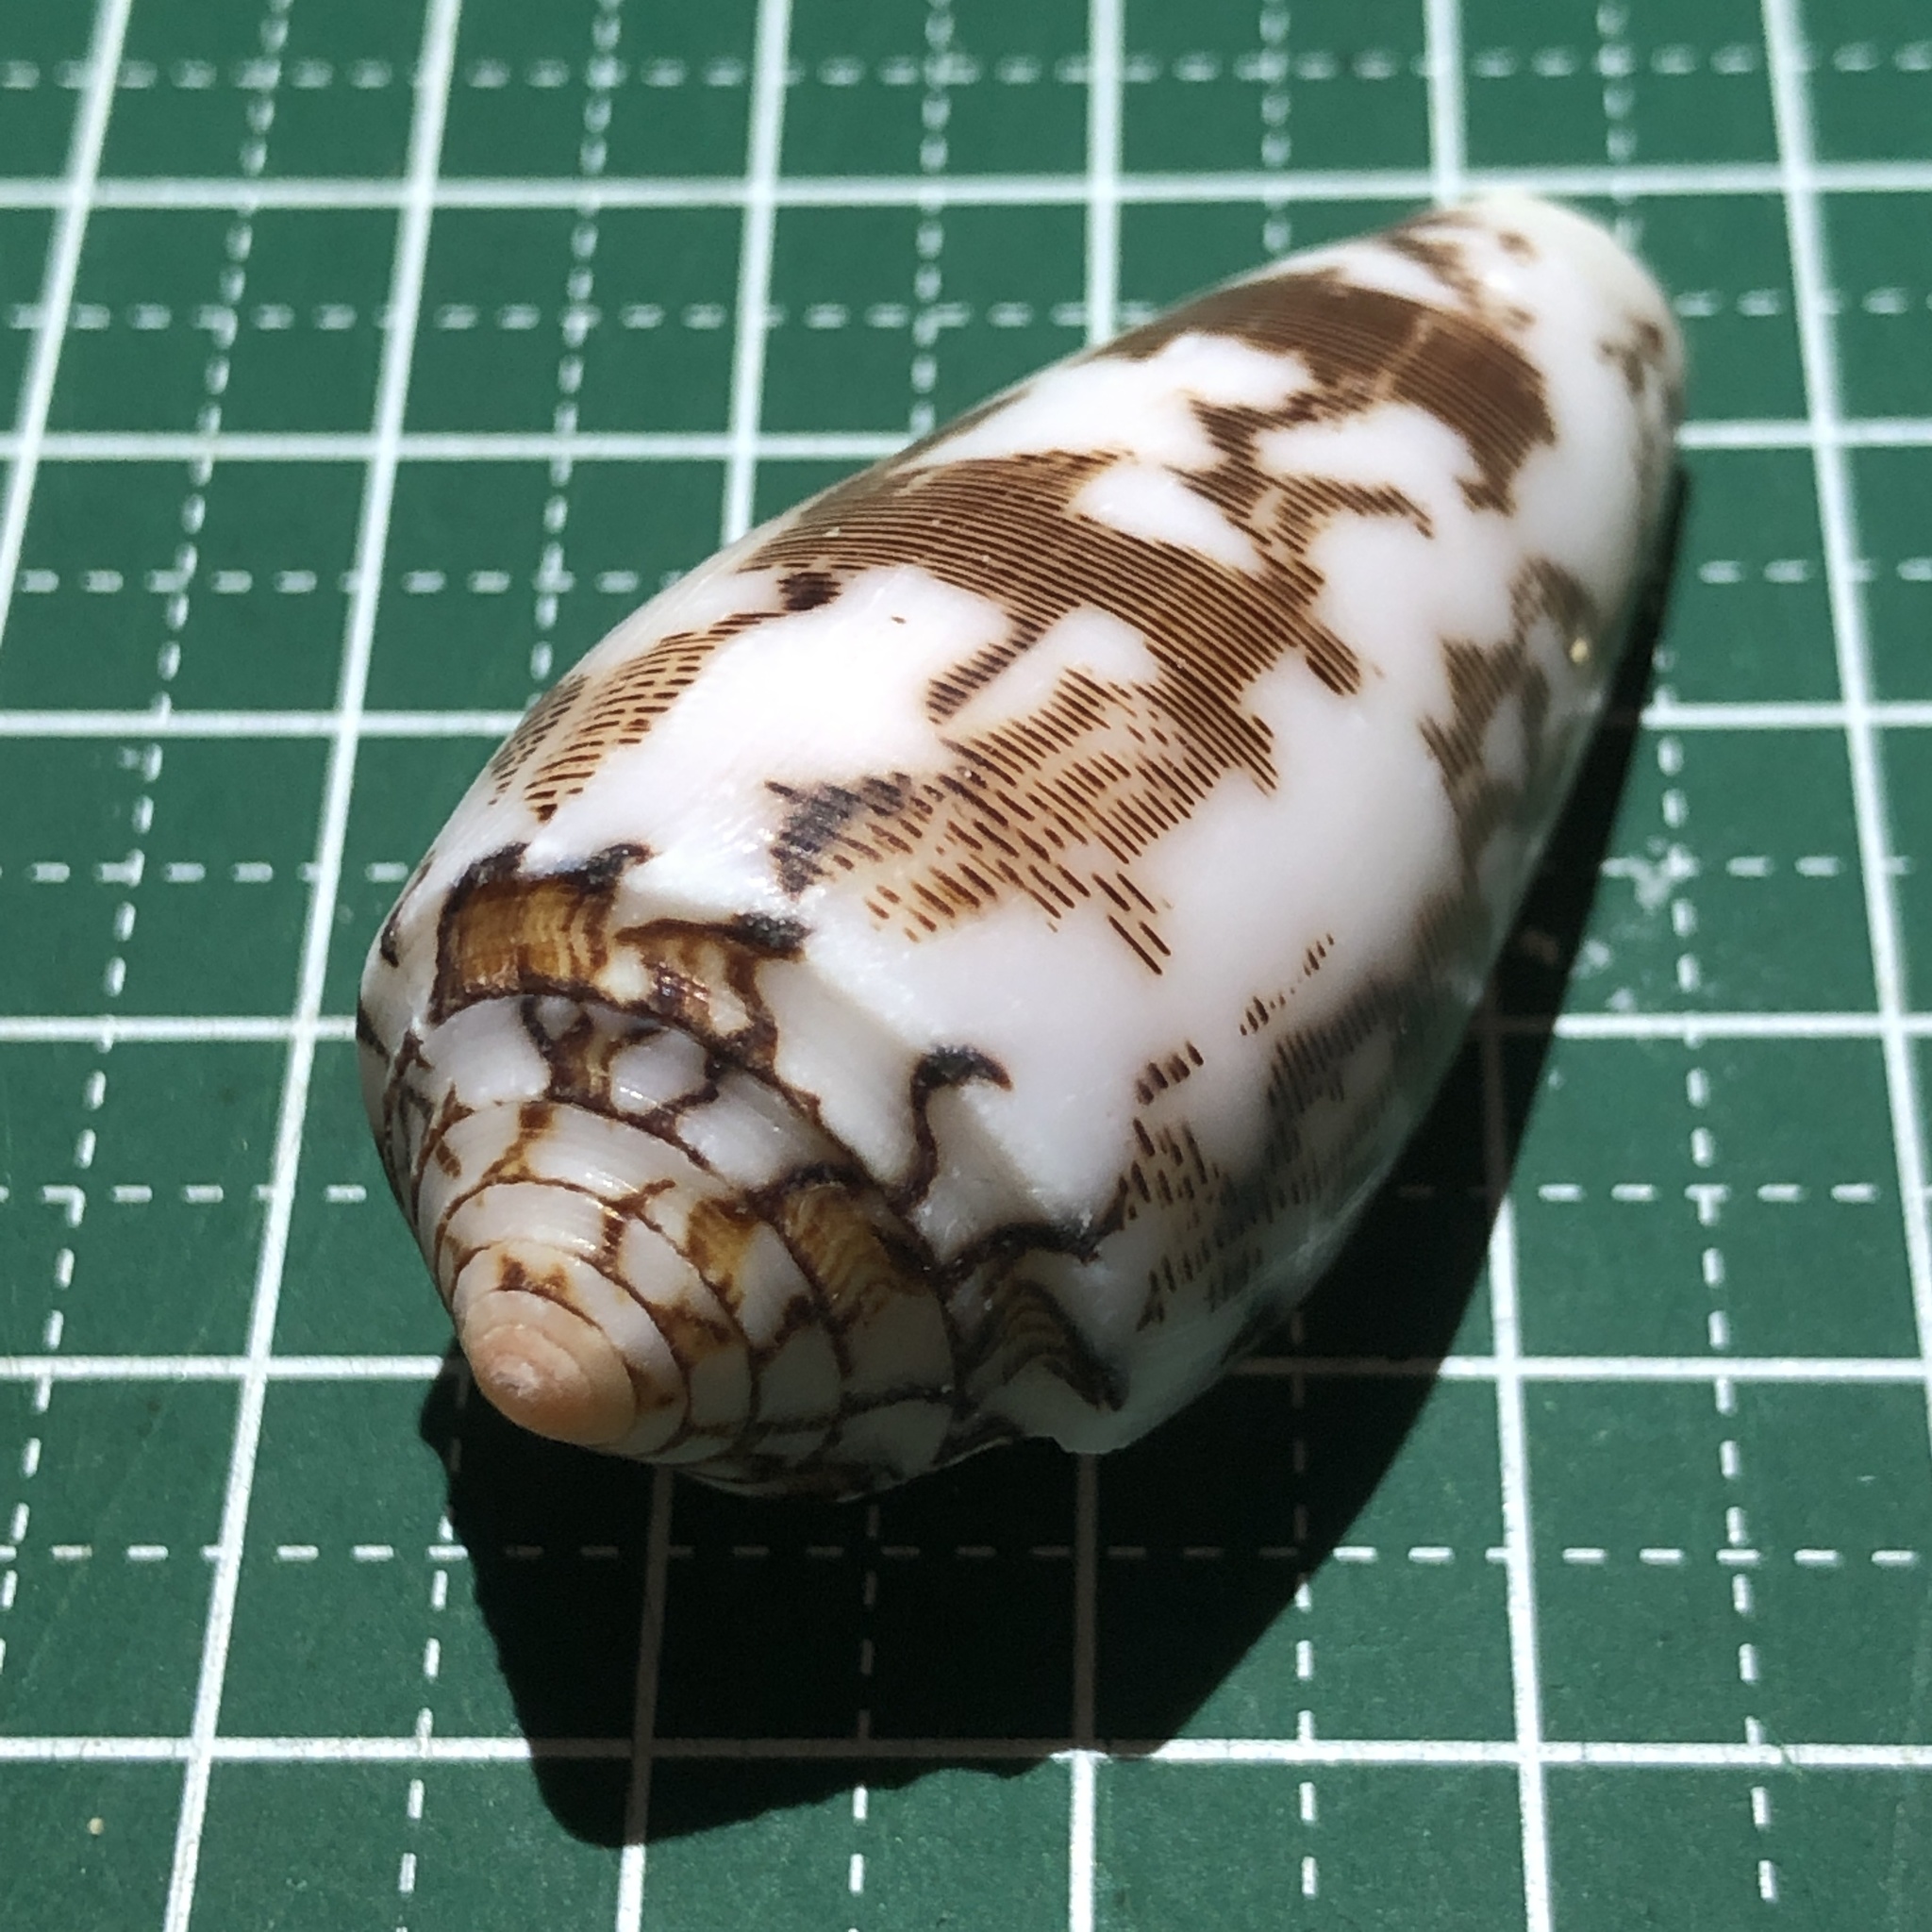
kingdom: Animalia
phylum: Mollusca
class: Gastropoda
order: Neogastropoda
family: Conidae
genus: Conus
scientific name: Conus striatus
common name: Striated cone
